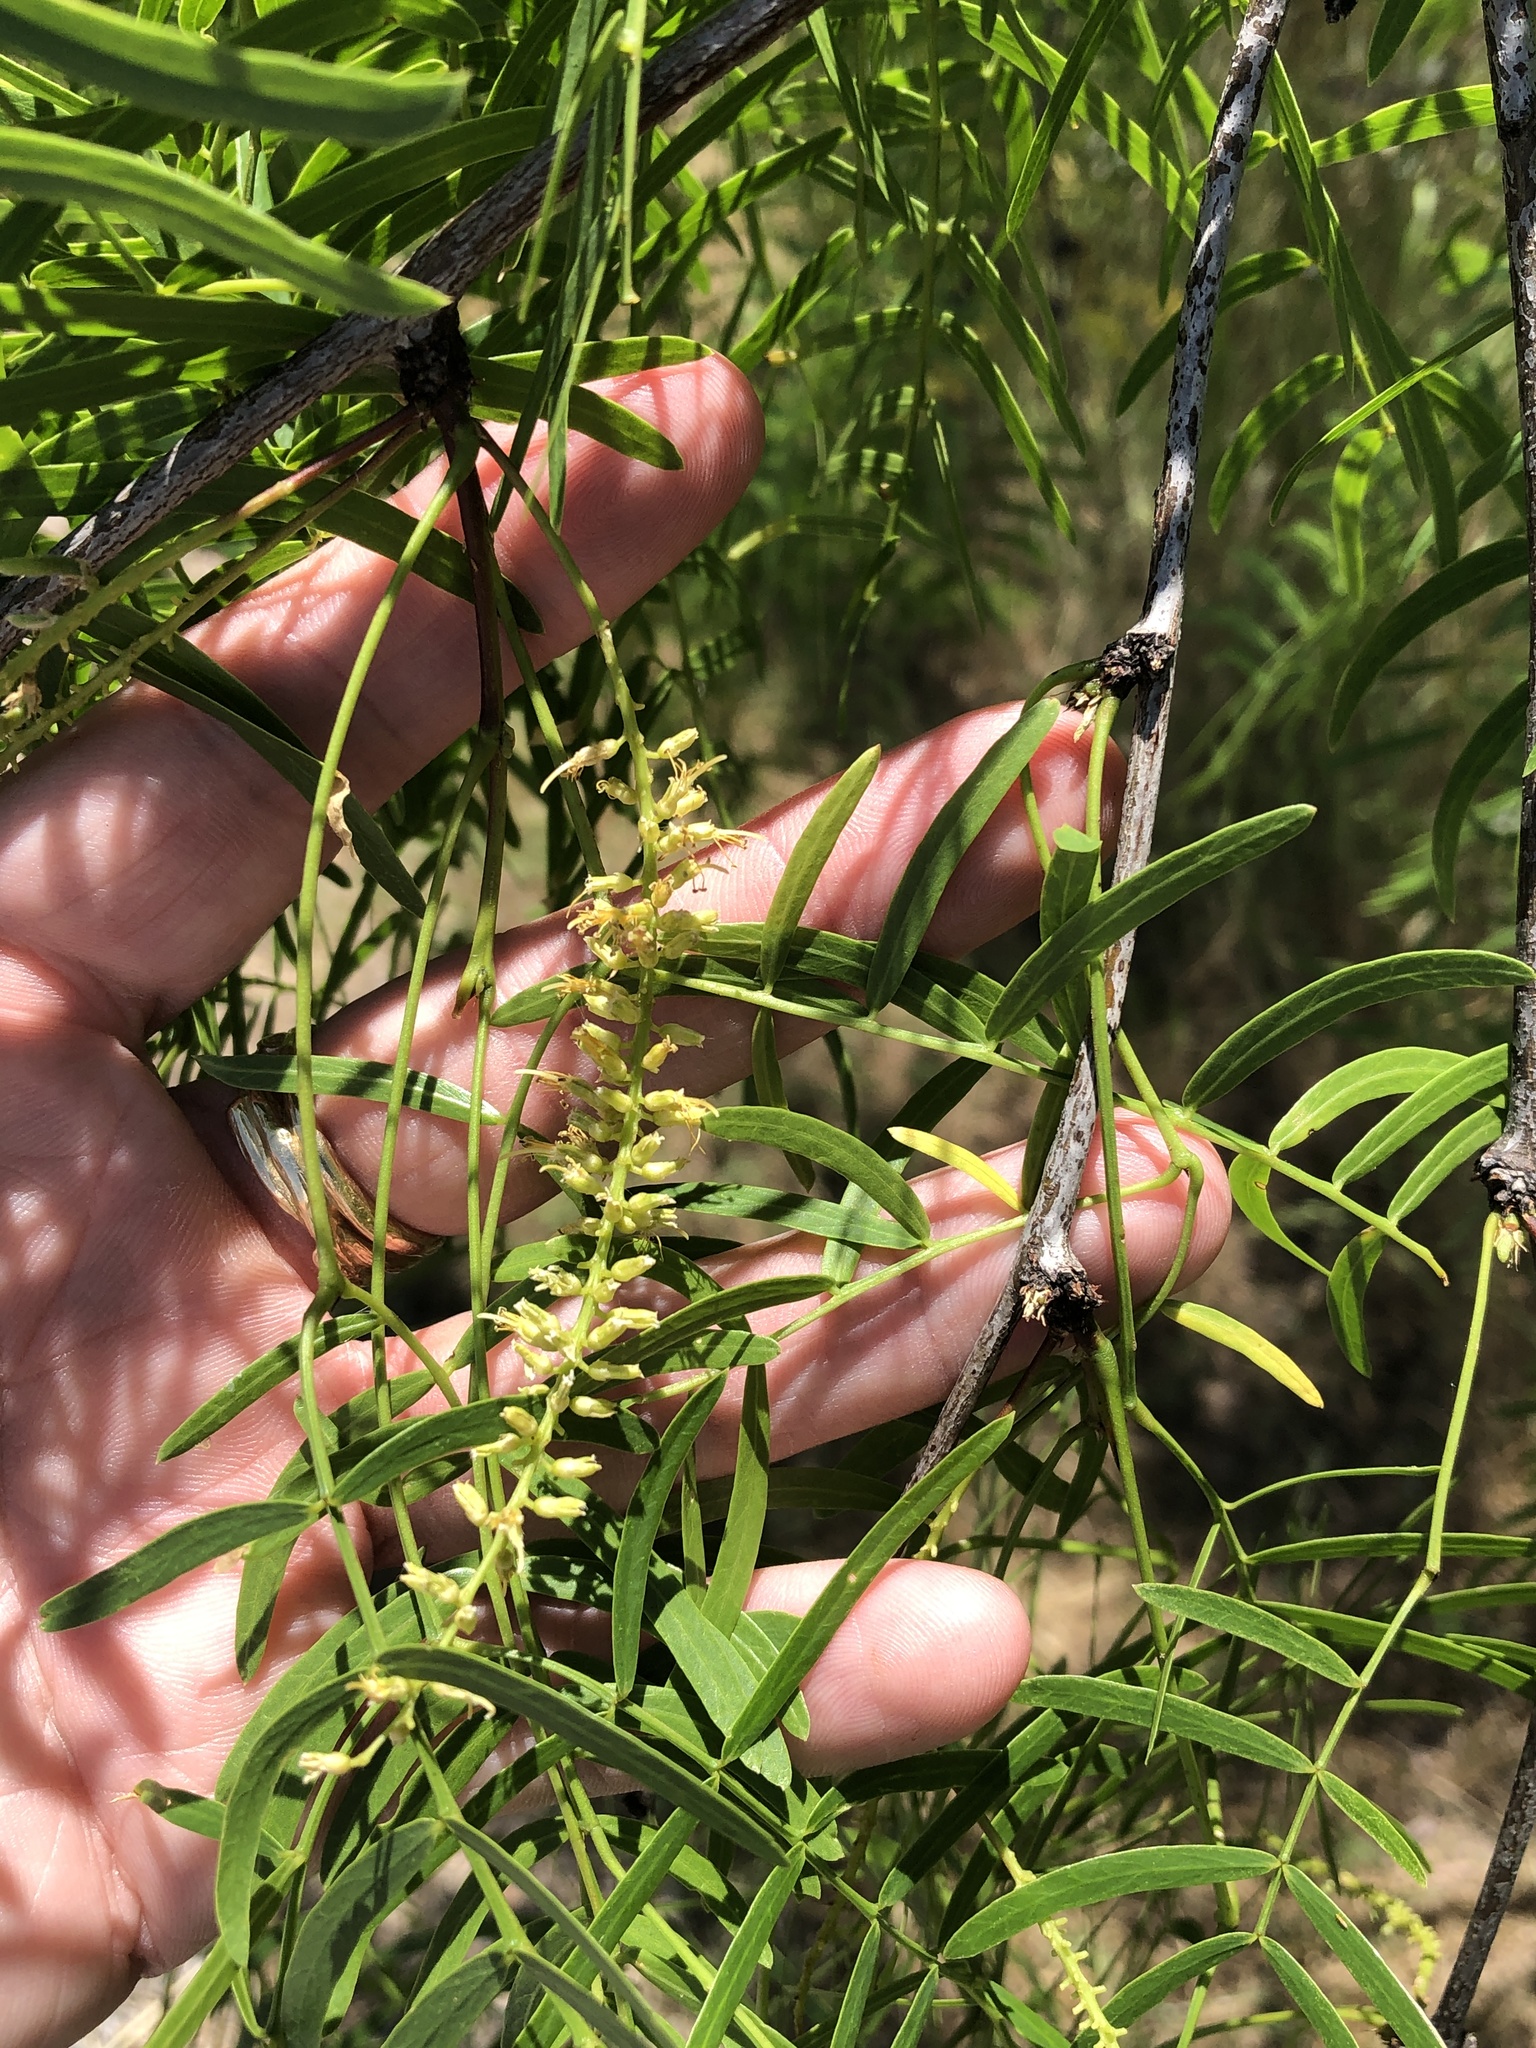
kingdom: Plantae
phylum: Tracheophyta
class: Magnoliopsida
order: Fabales
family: Fabaceae
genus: Prosopis
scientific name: Prosopis glandulosa
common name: Honey mesquite
